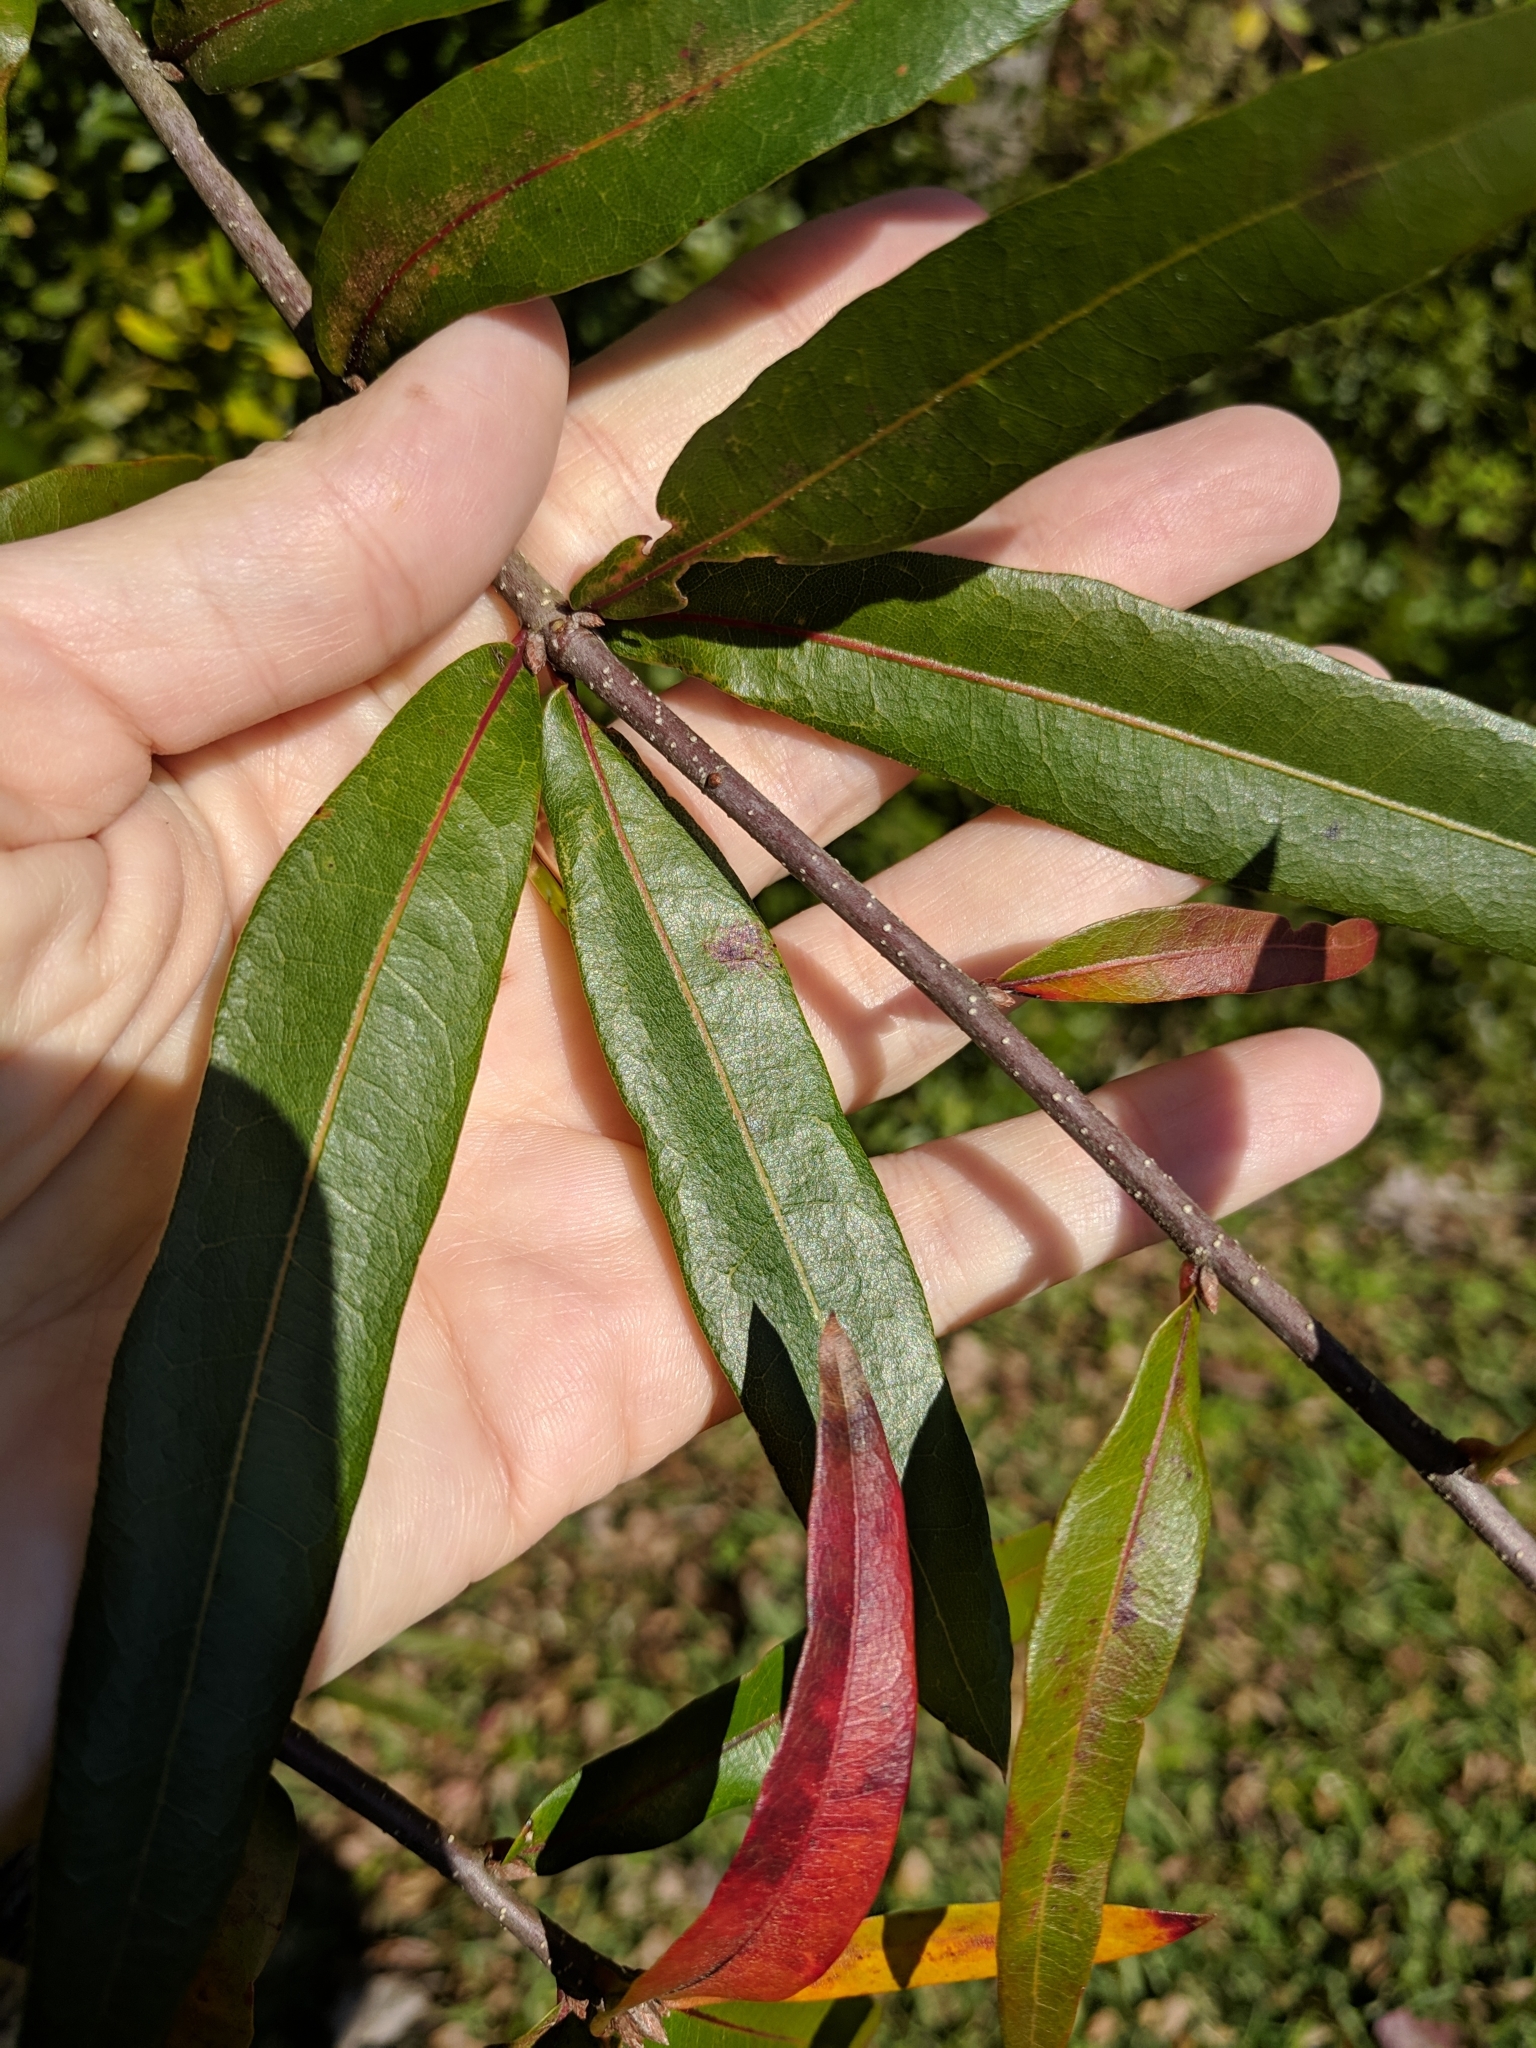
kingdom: Plantae
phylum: Tracheophyta
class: Magnoliopsida
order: Fagales
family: Fagaceae
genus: Quercus
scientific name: Quercus laurifolia
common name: Swamp laurel oak
